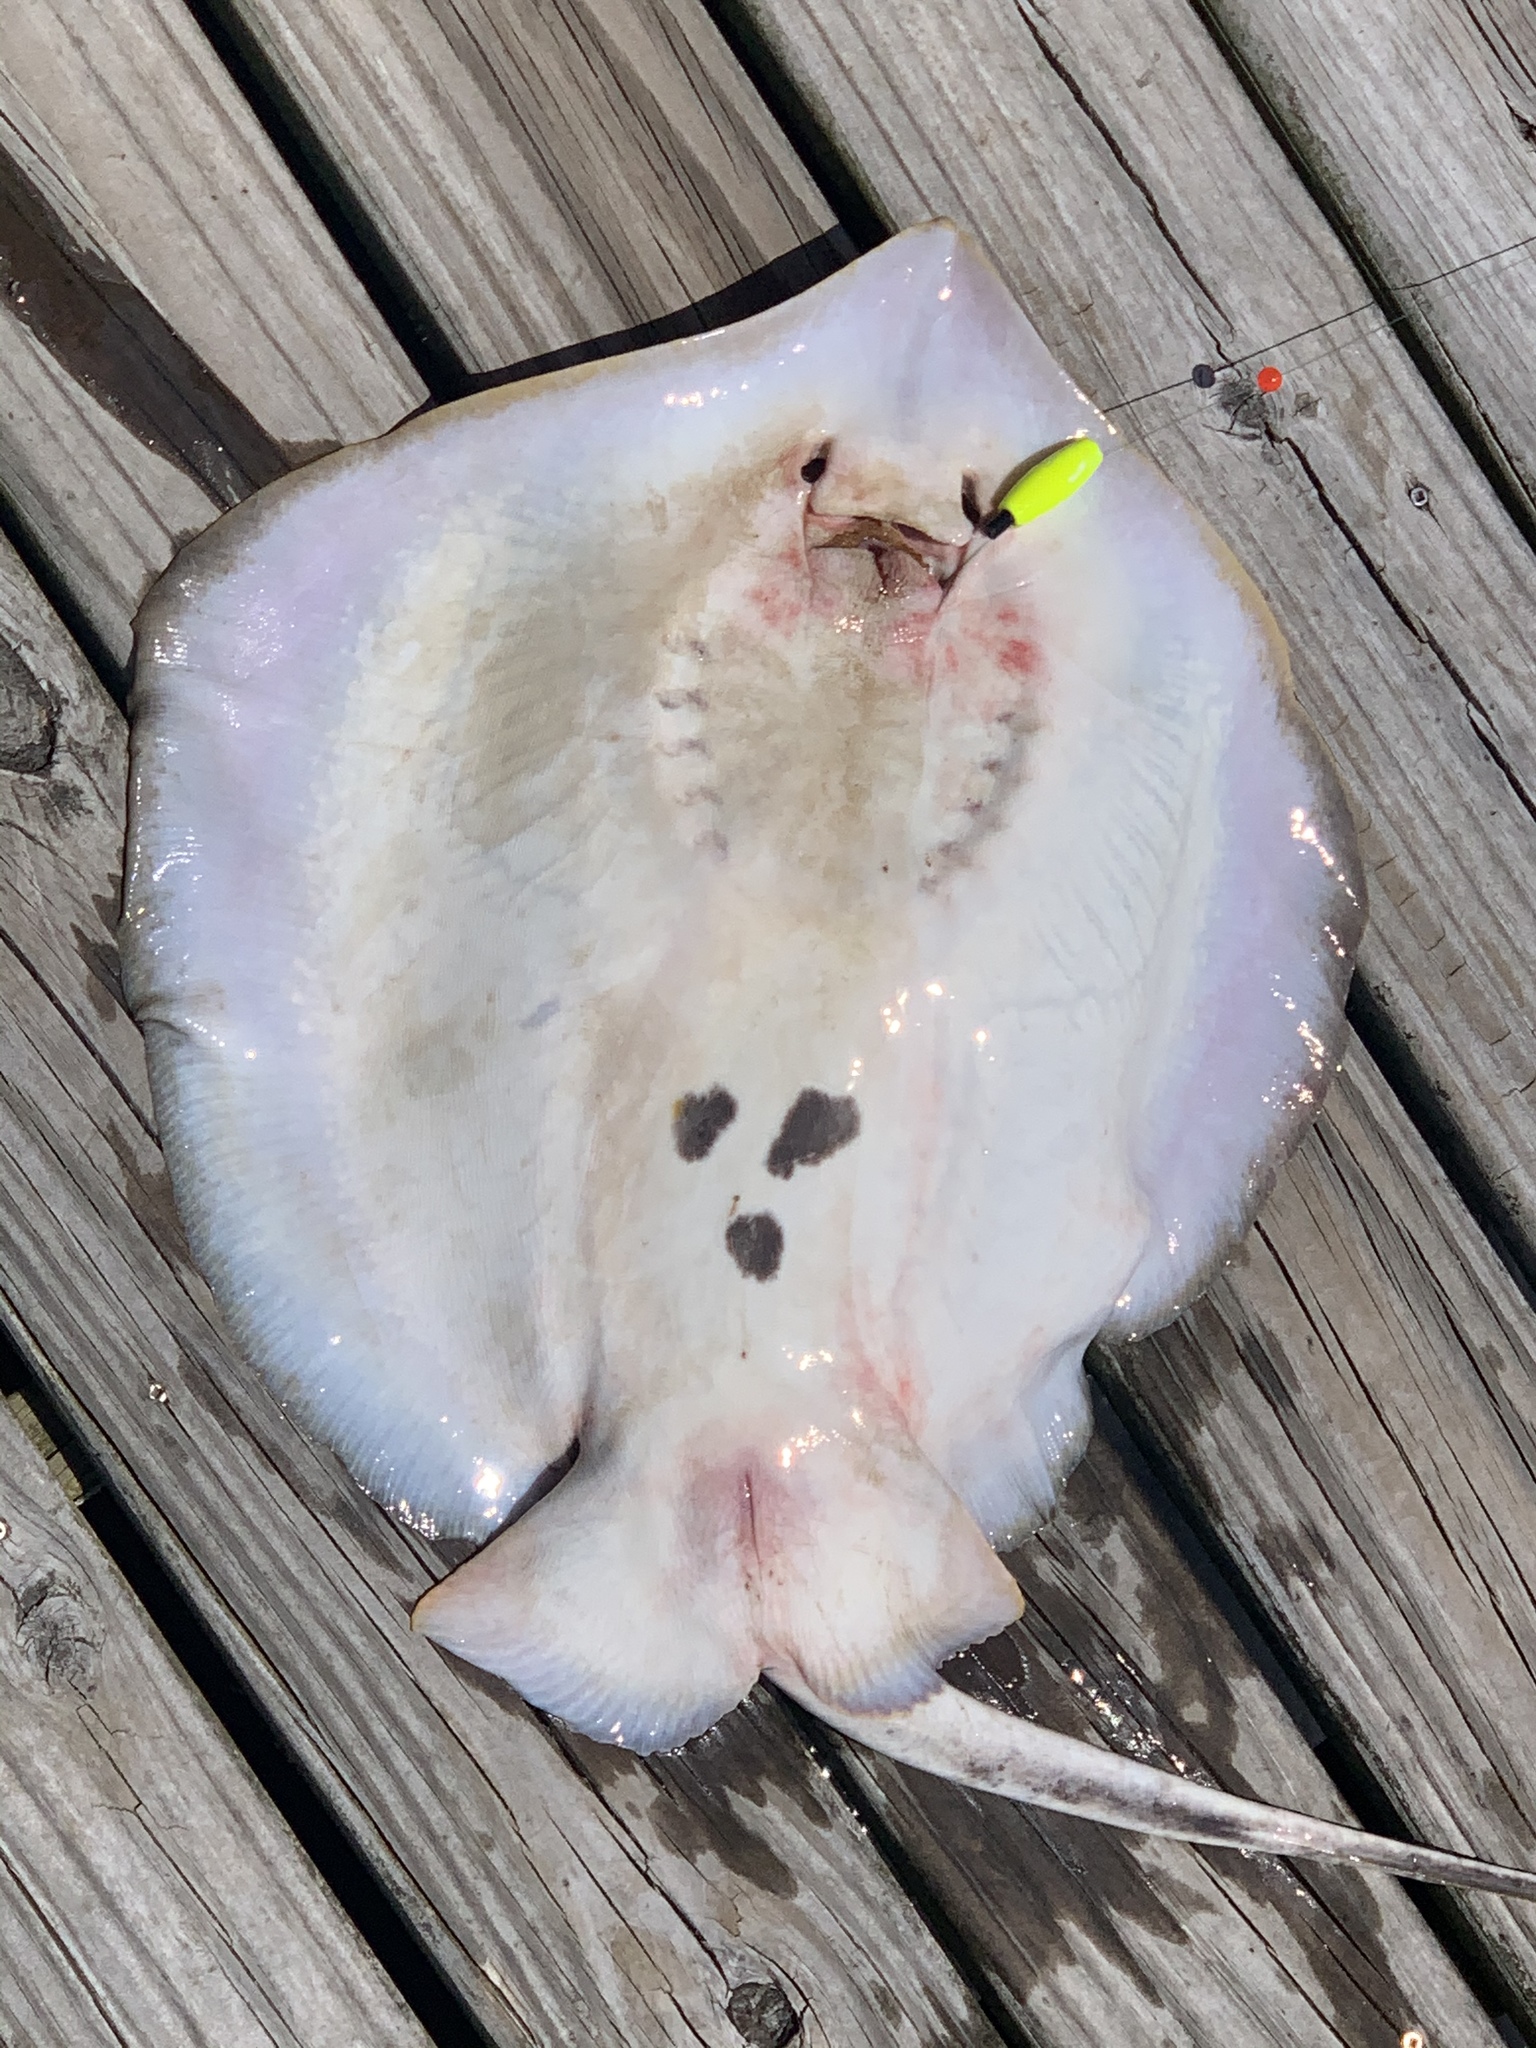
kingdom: Animalia
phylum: Chordata
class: Elasmobranchii
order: Myliobatiformes
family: Dasyatidae
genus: Hypanus
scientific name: Hypanus sabinus
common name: Atlantic stingray
